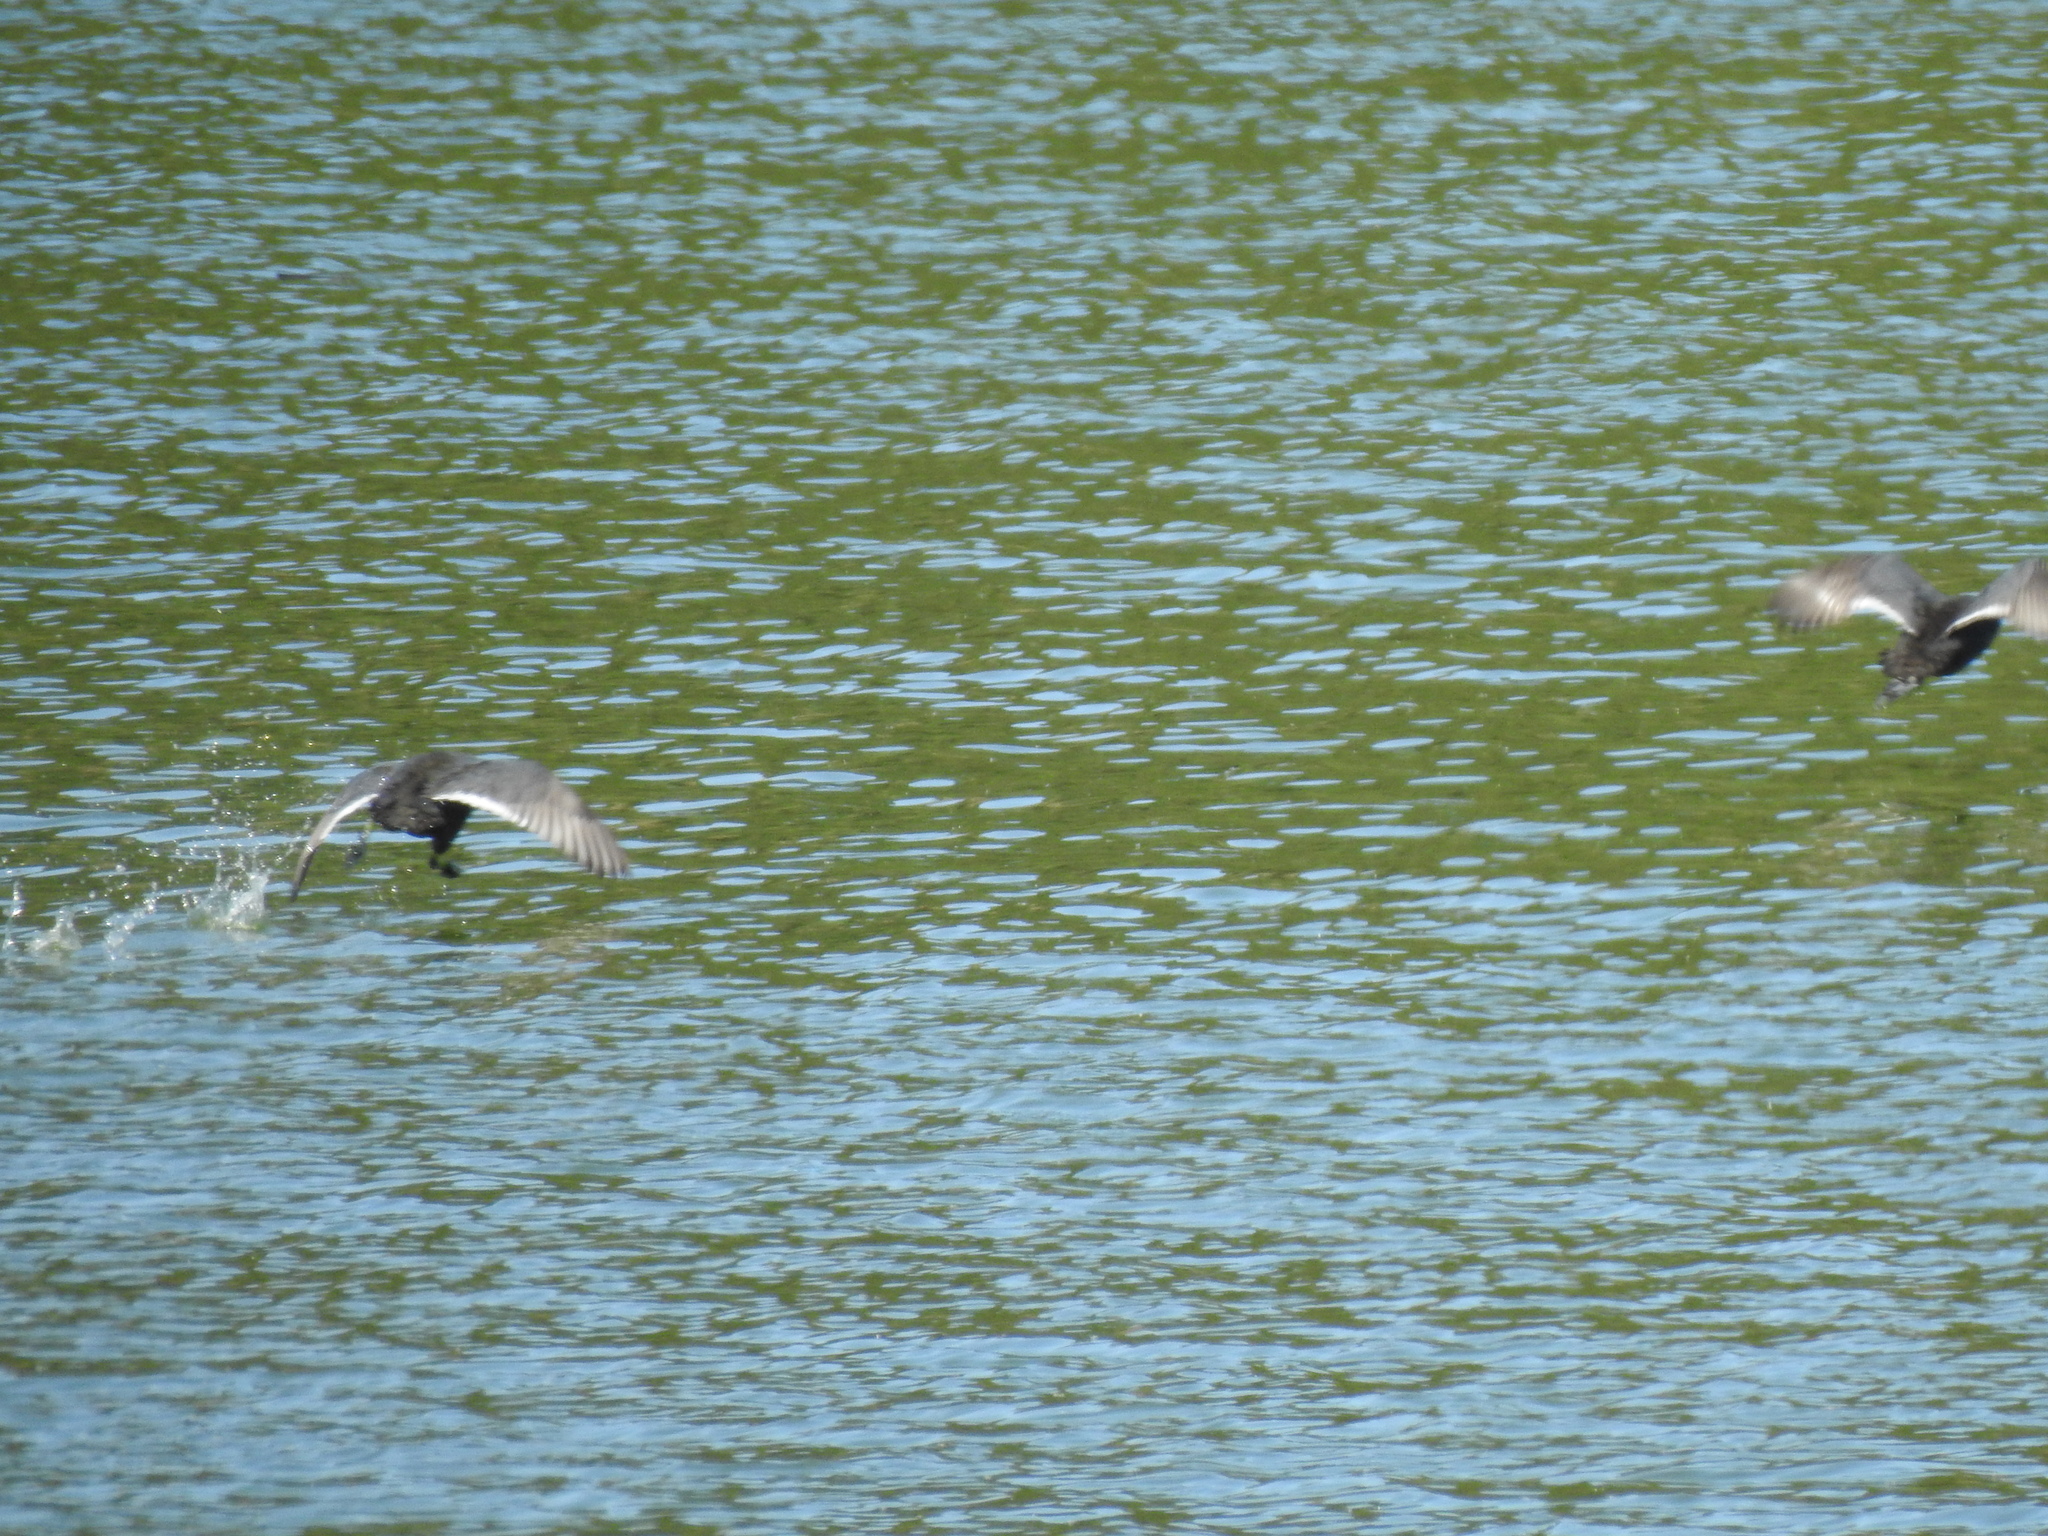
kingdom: Animalia
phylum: Chordata
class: Aves
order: Gruiformes
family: Rallidae
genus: Fulica
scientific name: Fulica americana
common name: American coot
